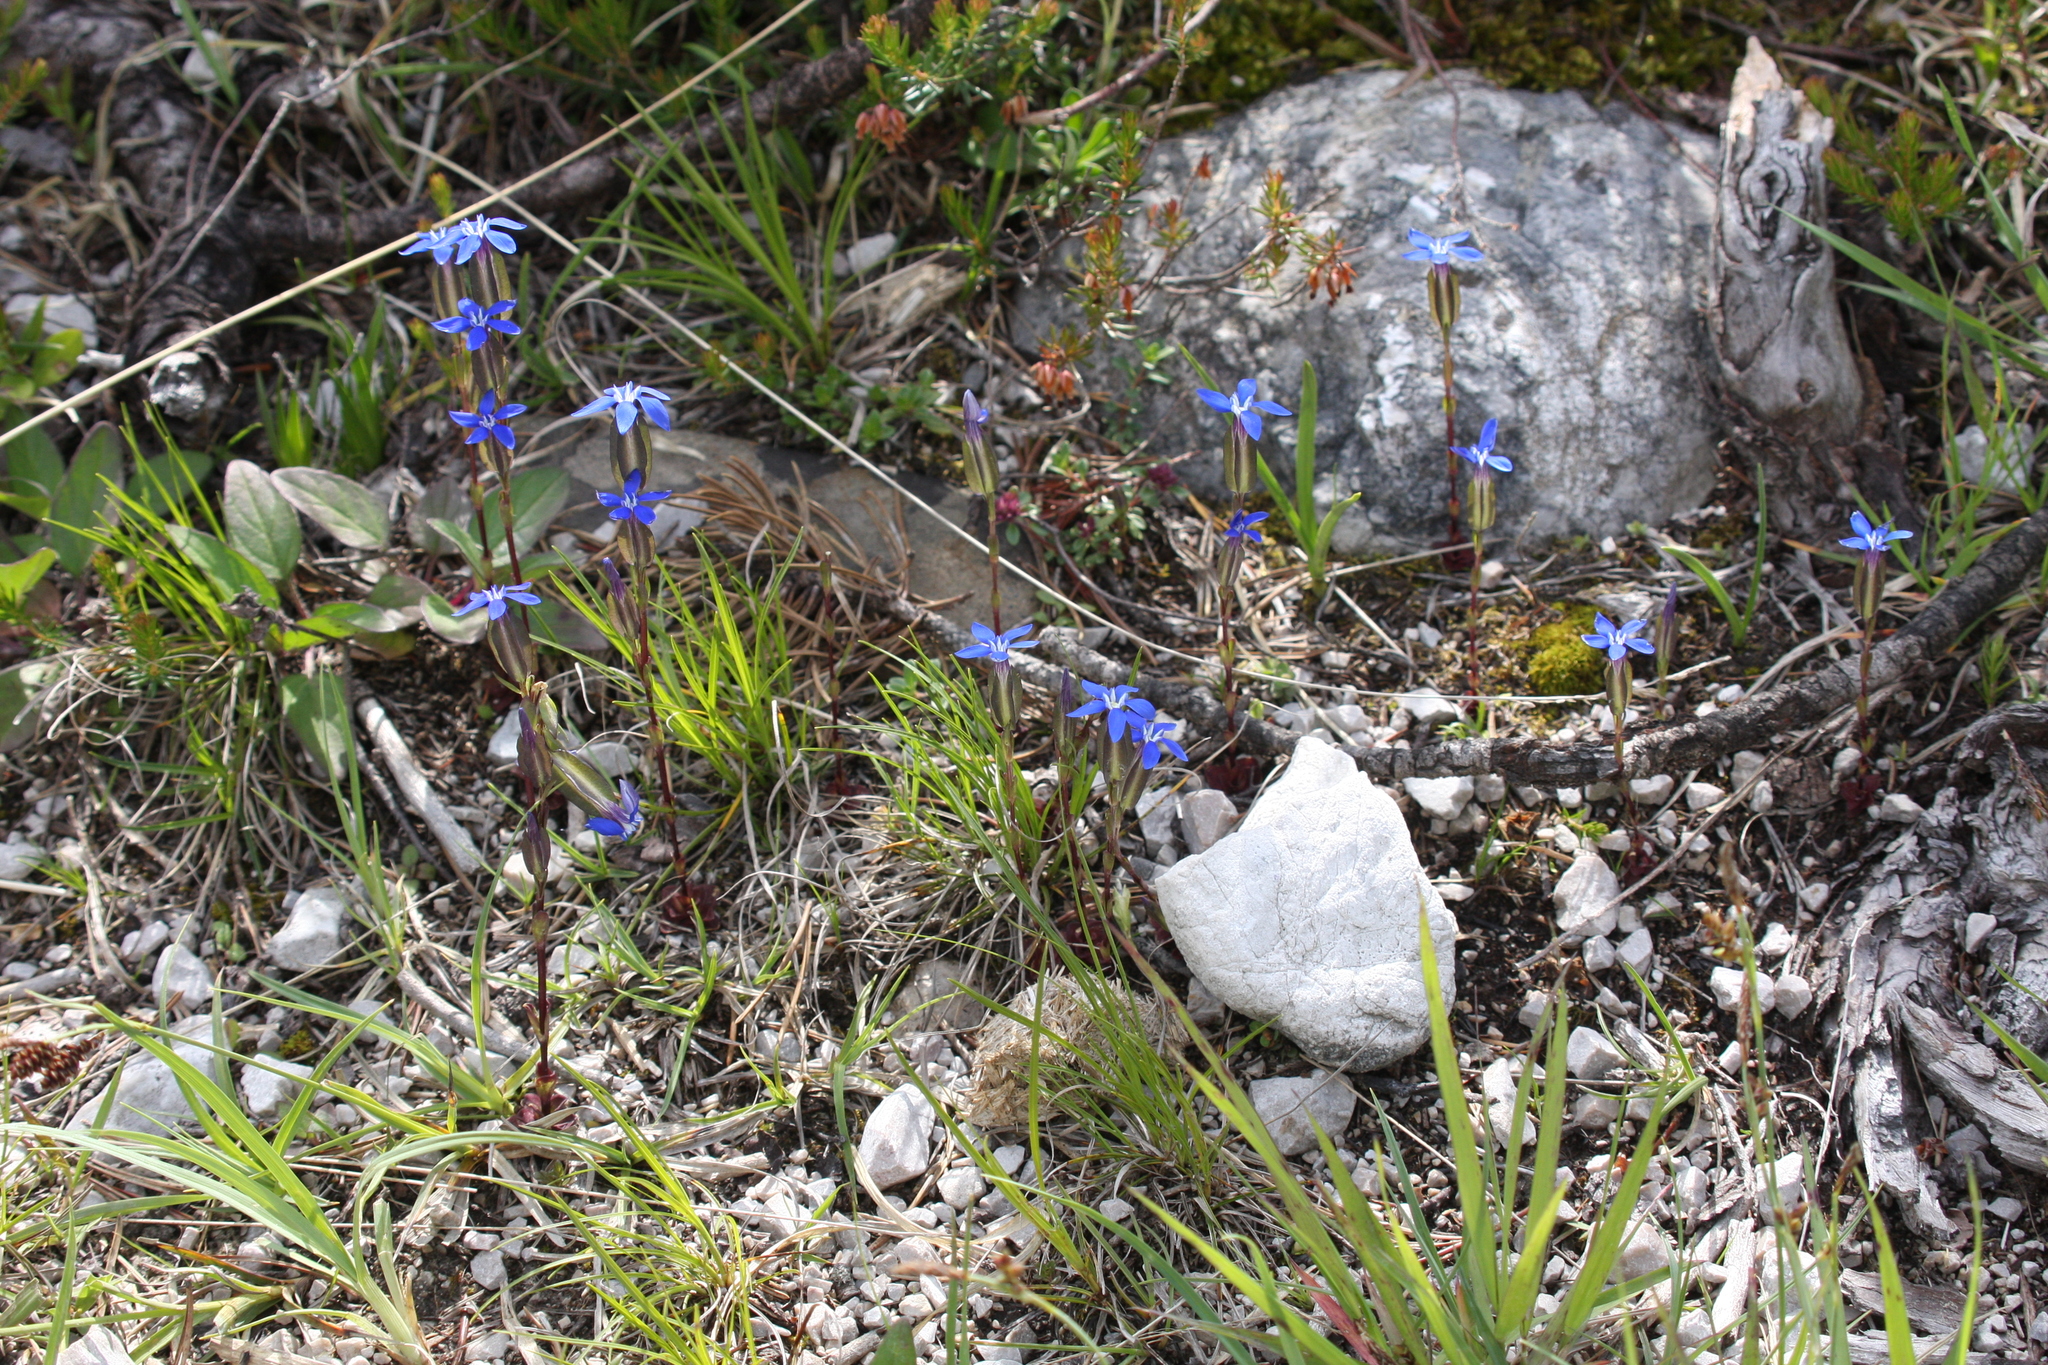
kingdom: Plantae
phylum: Tracheophyta
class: Magnoliopsida
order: Gentianales
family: Gentianaceae
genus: Gentiana
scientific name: Gentiana utriculosa
